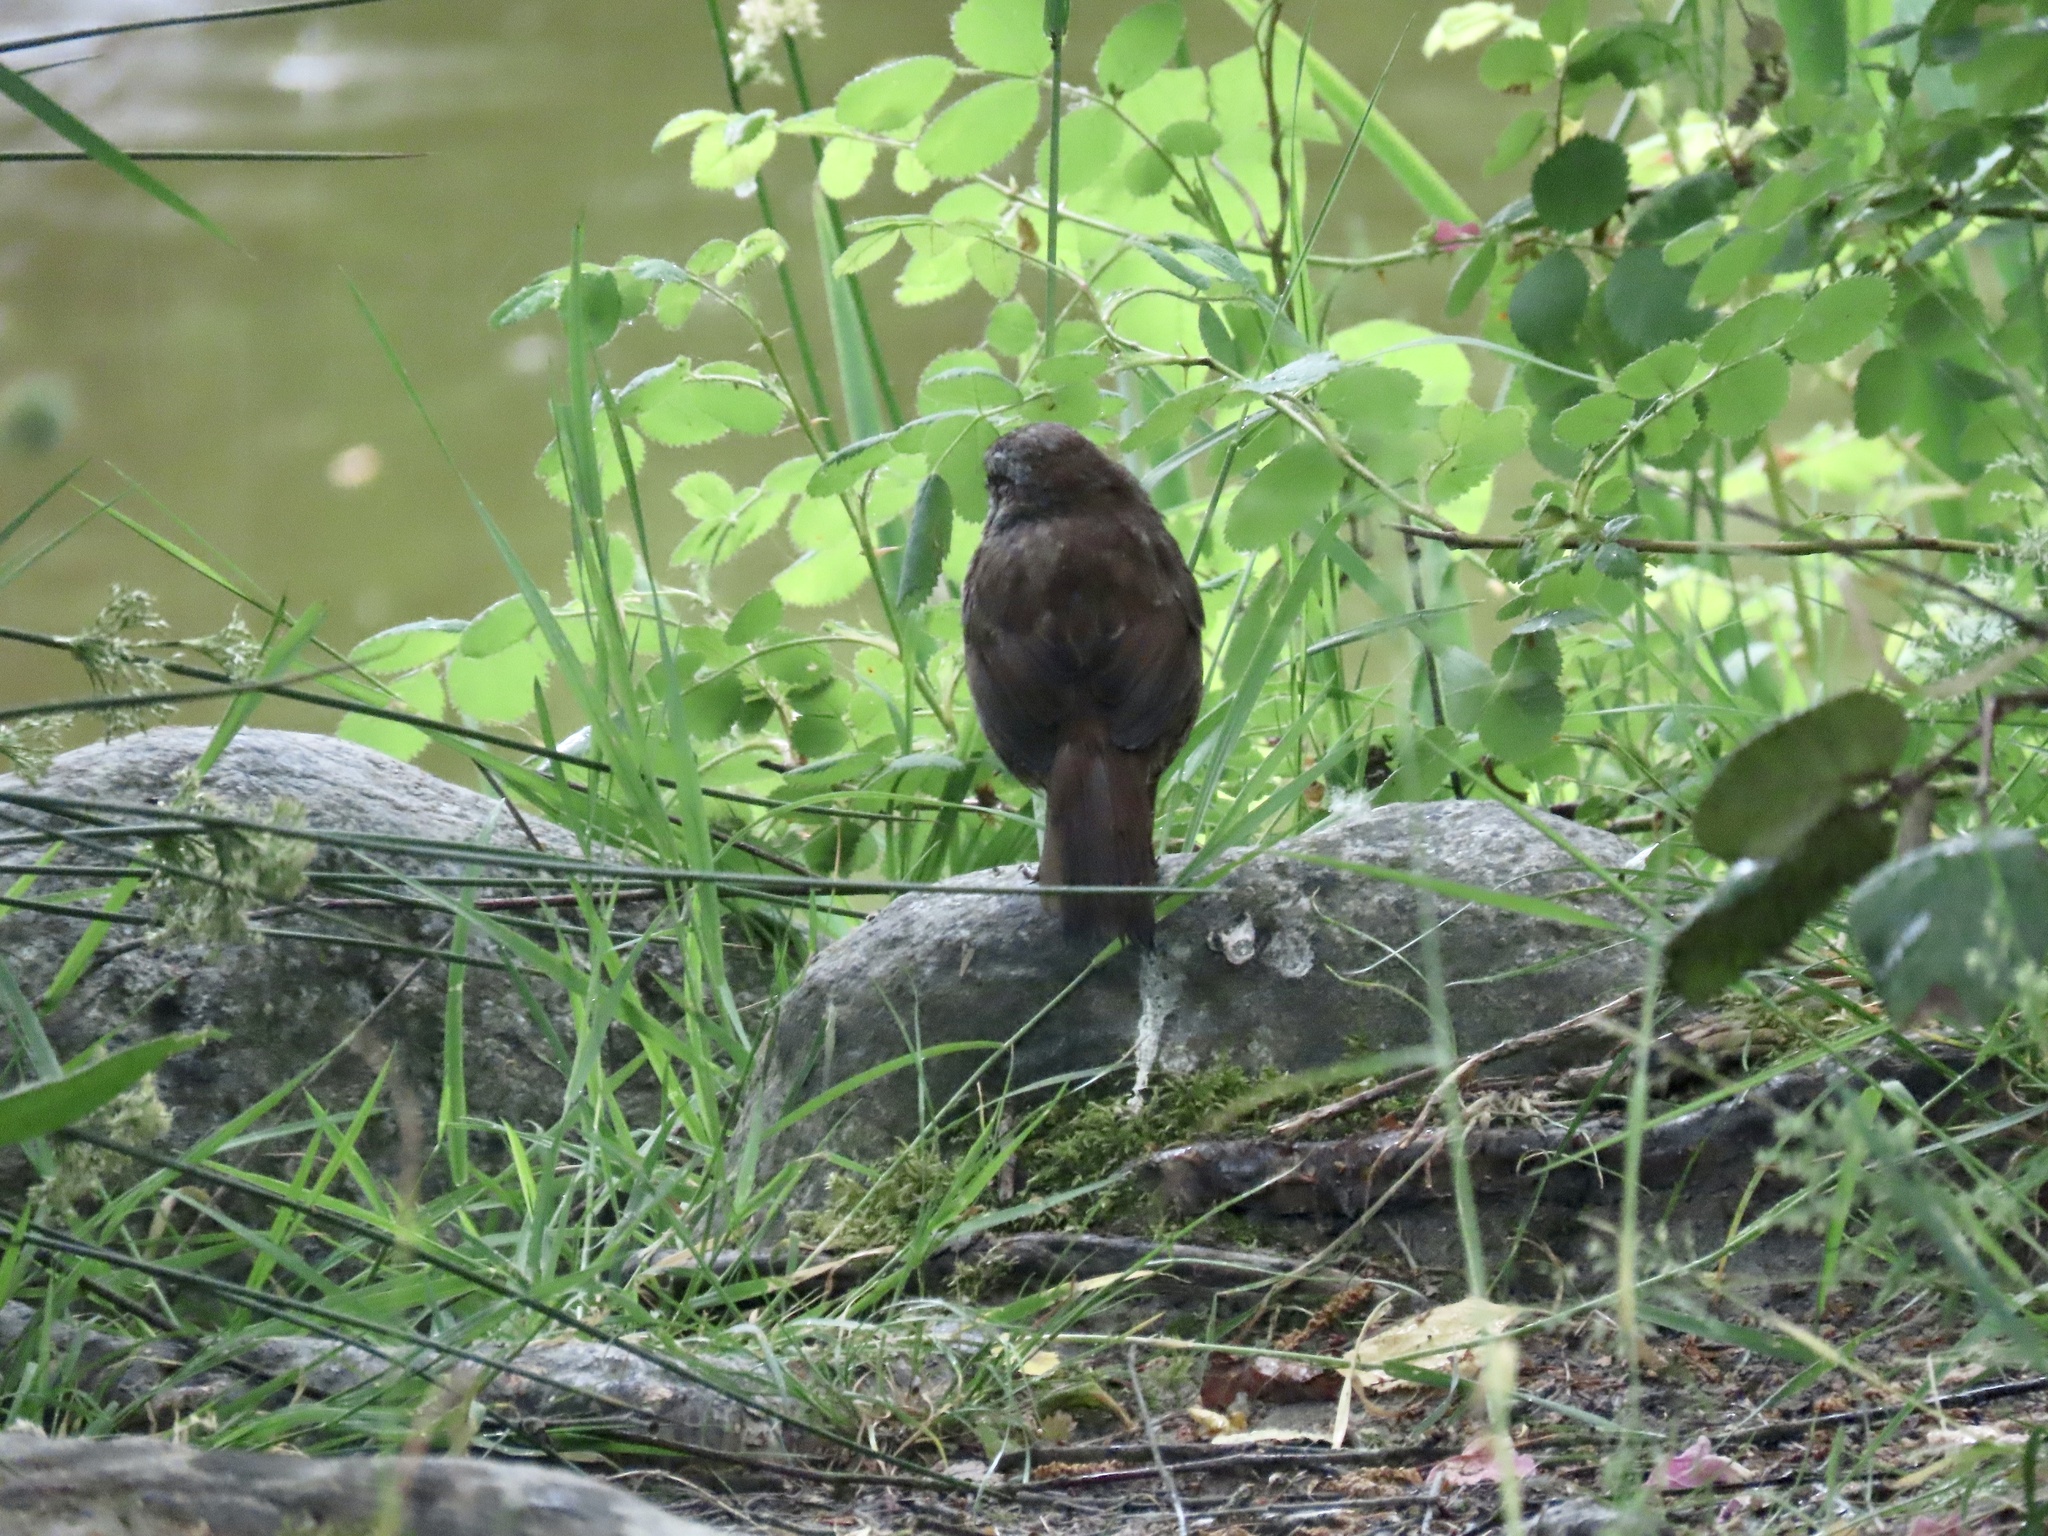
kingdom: Animalia
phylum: Chordata
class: Aves
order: Passeriformes
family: Passerellidae
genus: Melospiza
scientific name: Melospiza melodia
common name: Song sparrow
